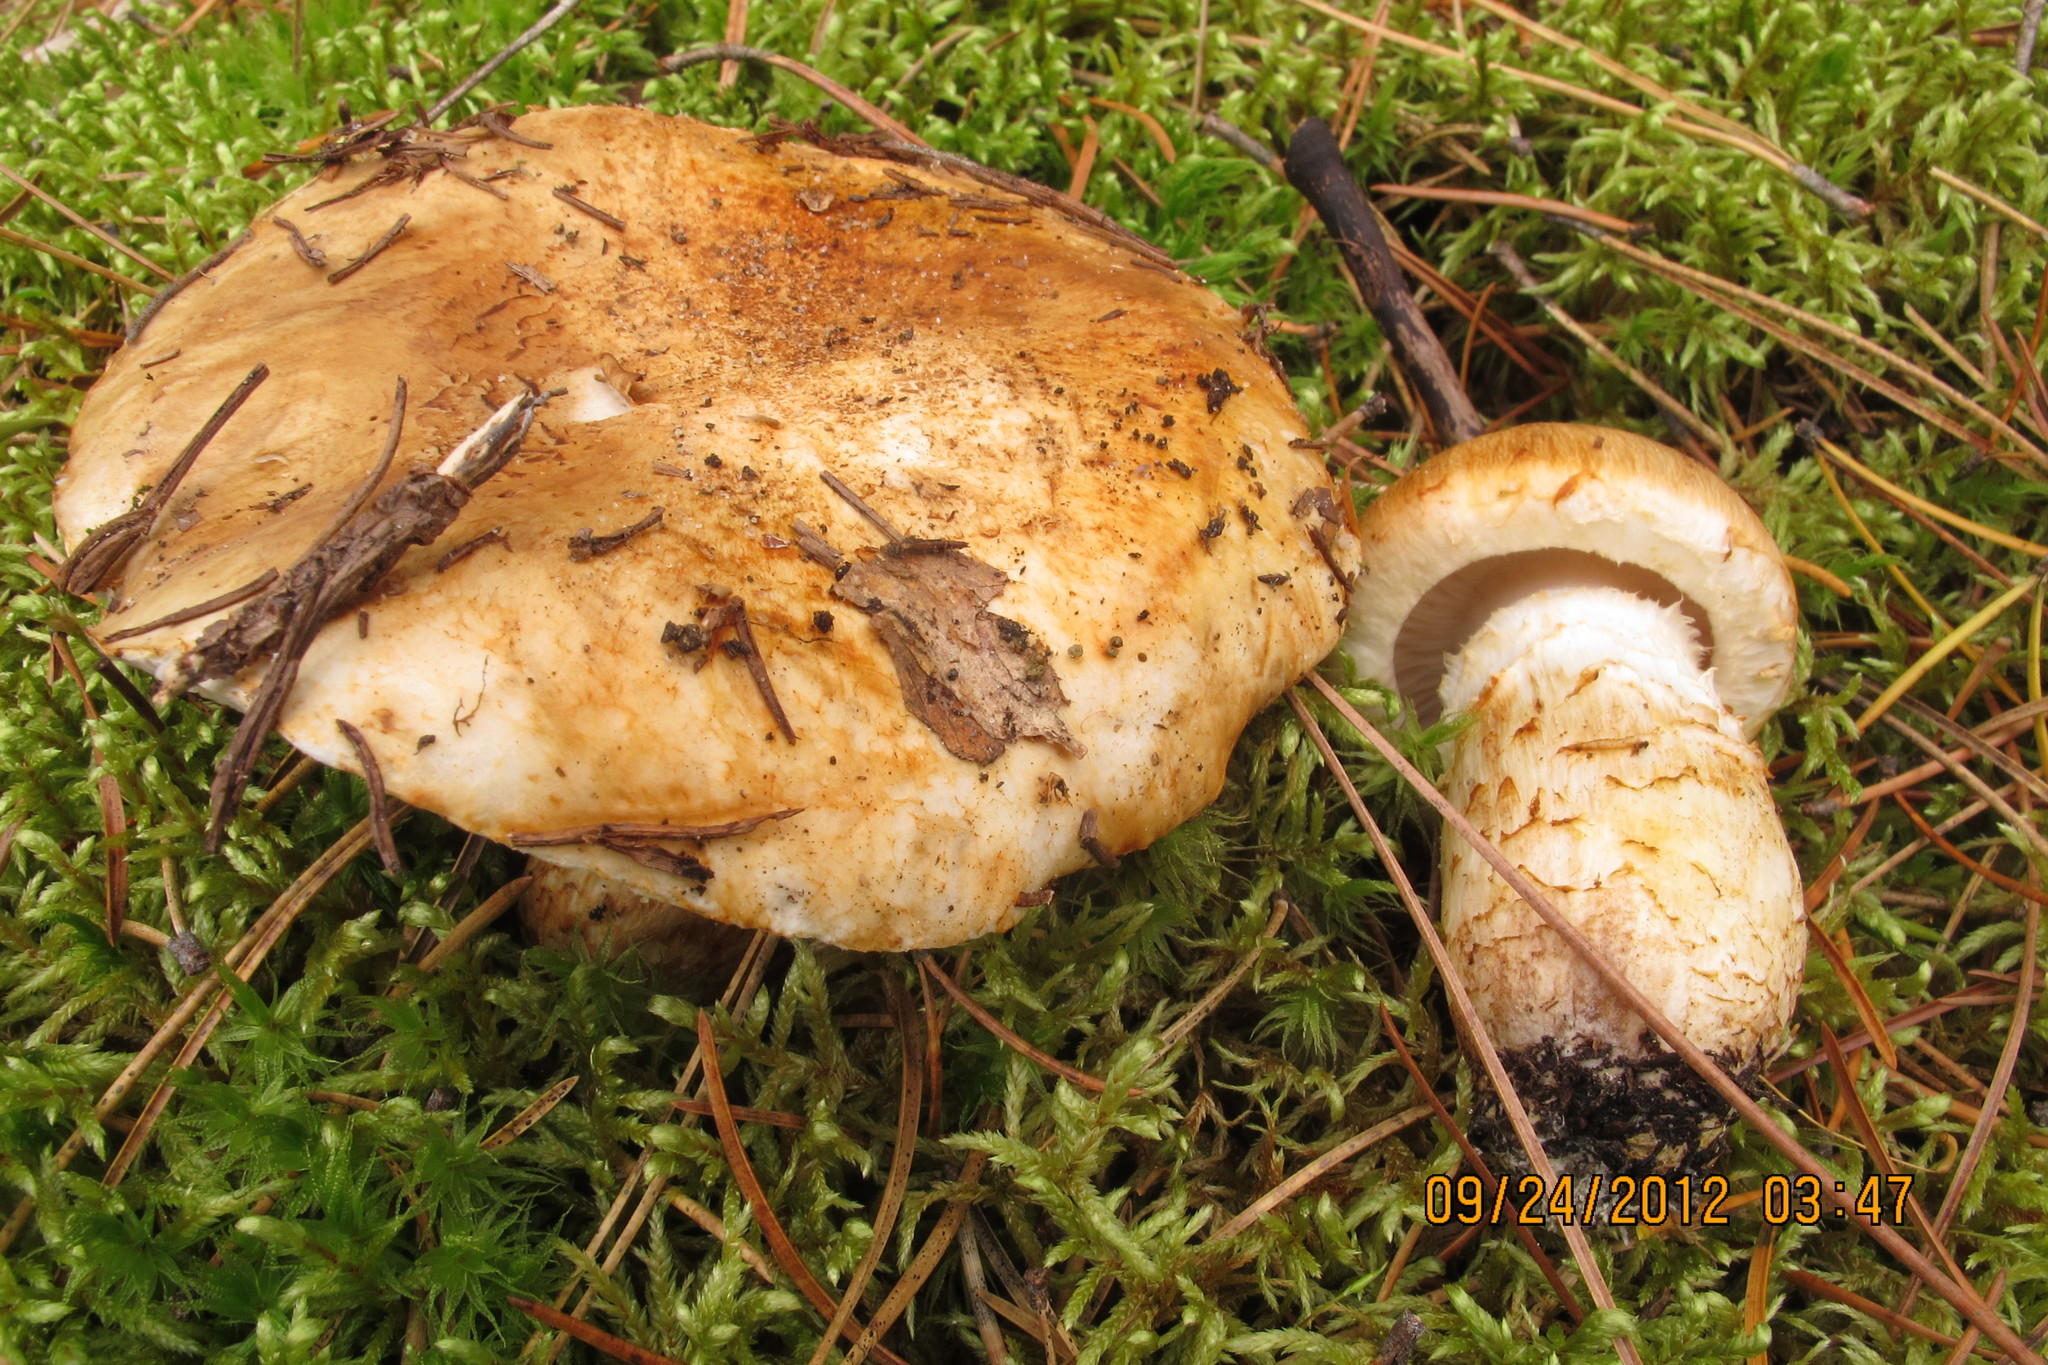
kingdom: Fungi
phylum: Basidiomycota
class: Agaricomycetes
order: Agaricales
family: Tricholomataceae
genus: Tricholoma
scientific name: Tricholoma focale
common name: Booted knight
